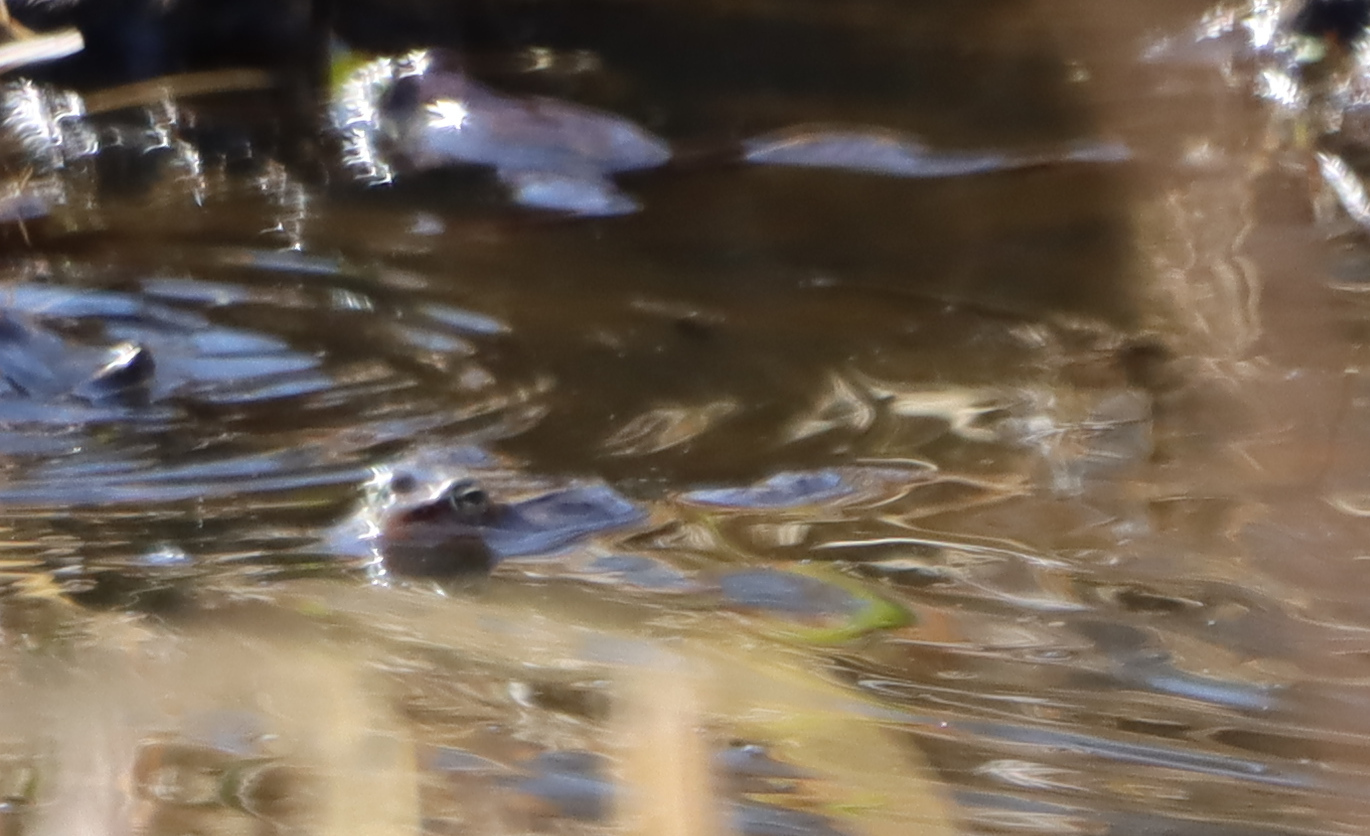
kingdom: Animalia
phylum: Chordata
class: Amphibia
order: Anura
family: Ranidae
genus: Lithobates
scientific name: Lithobates sylvaticus
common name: Wood frog
